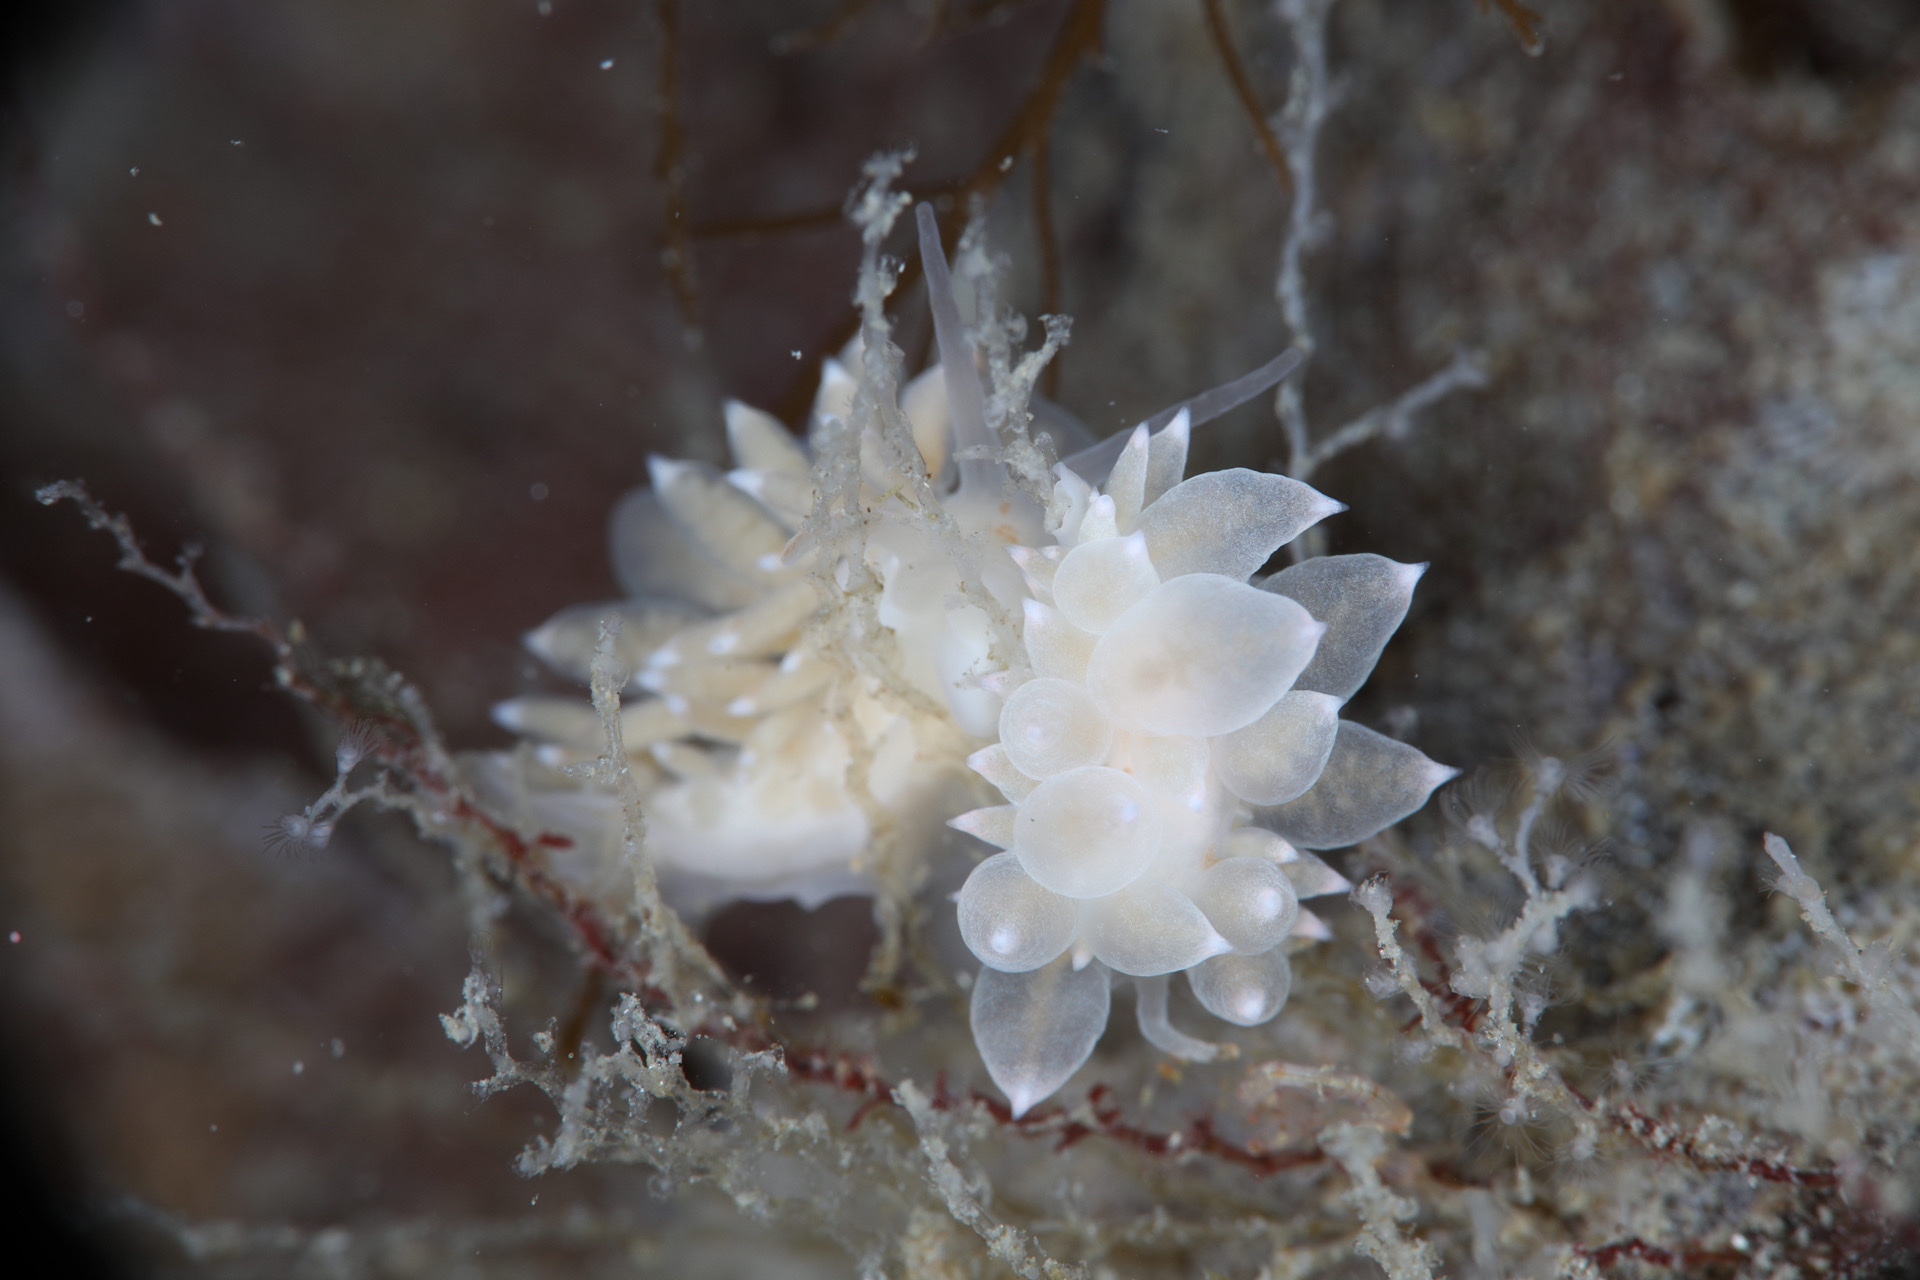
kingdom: Animalia
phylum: Mollusca
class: Gastropoda
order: Nudibranchia
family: Eubranchidae
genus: Amphorina
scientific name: Amphorina linensis
